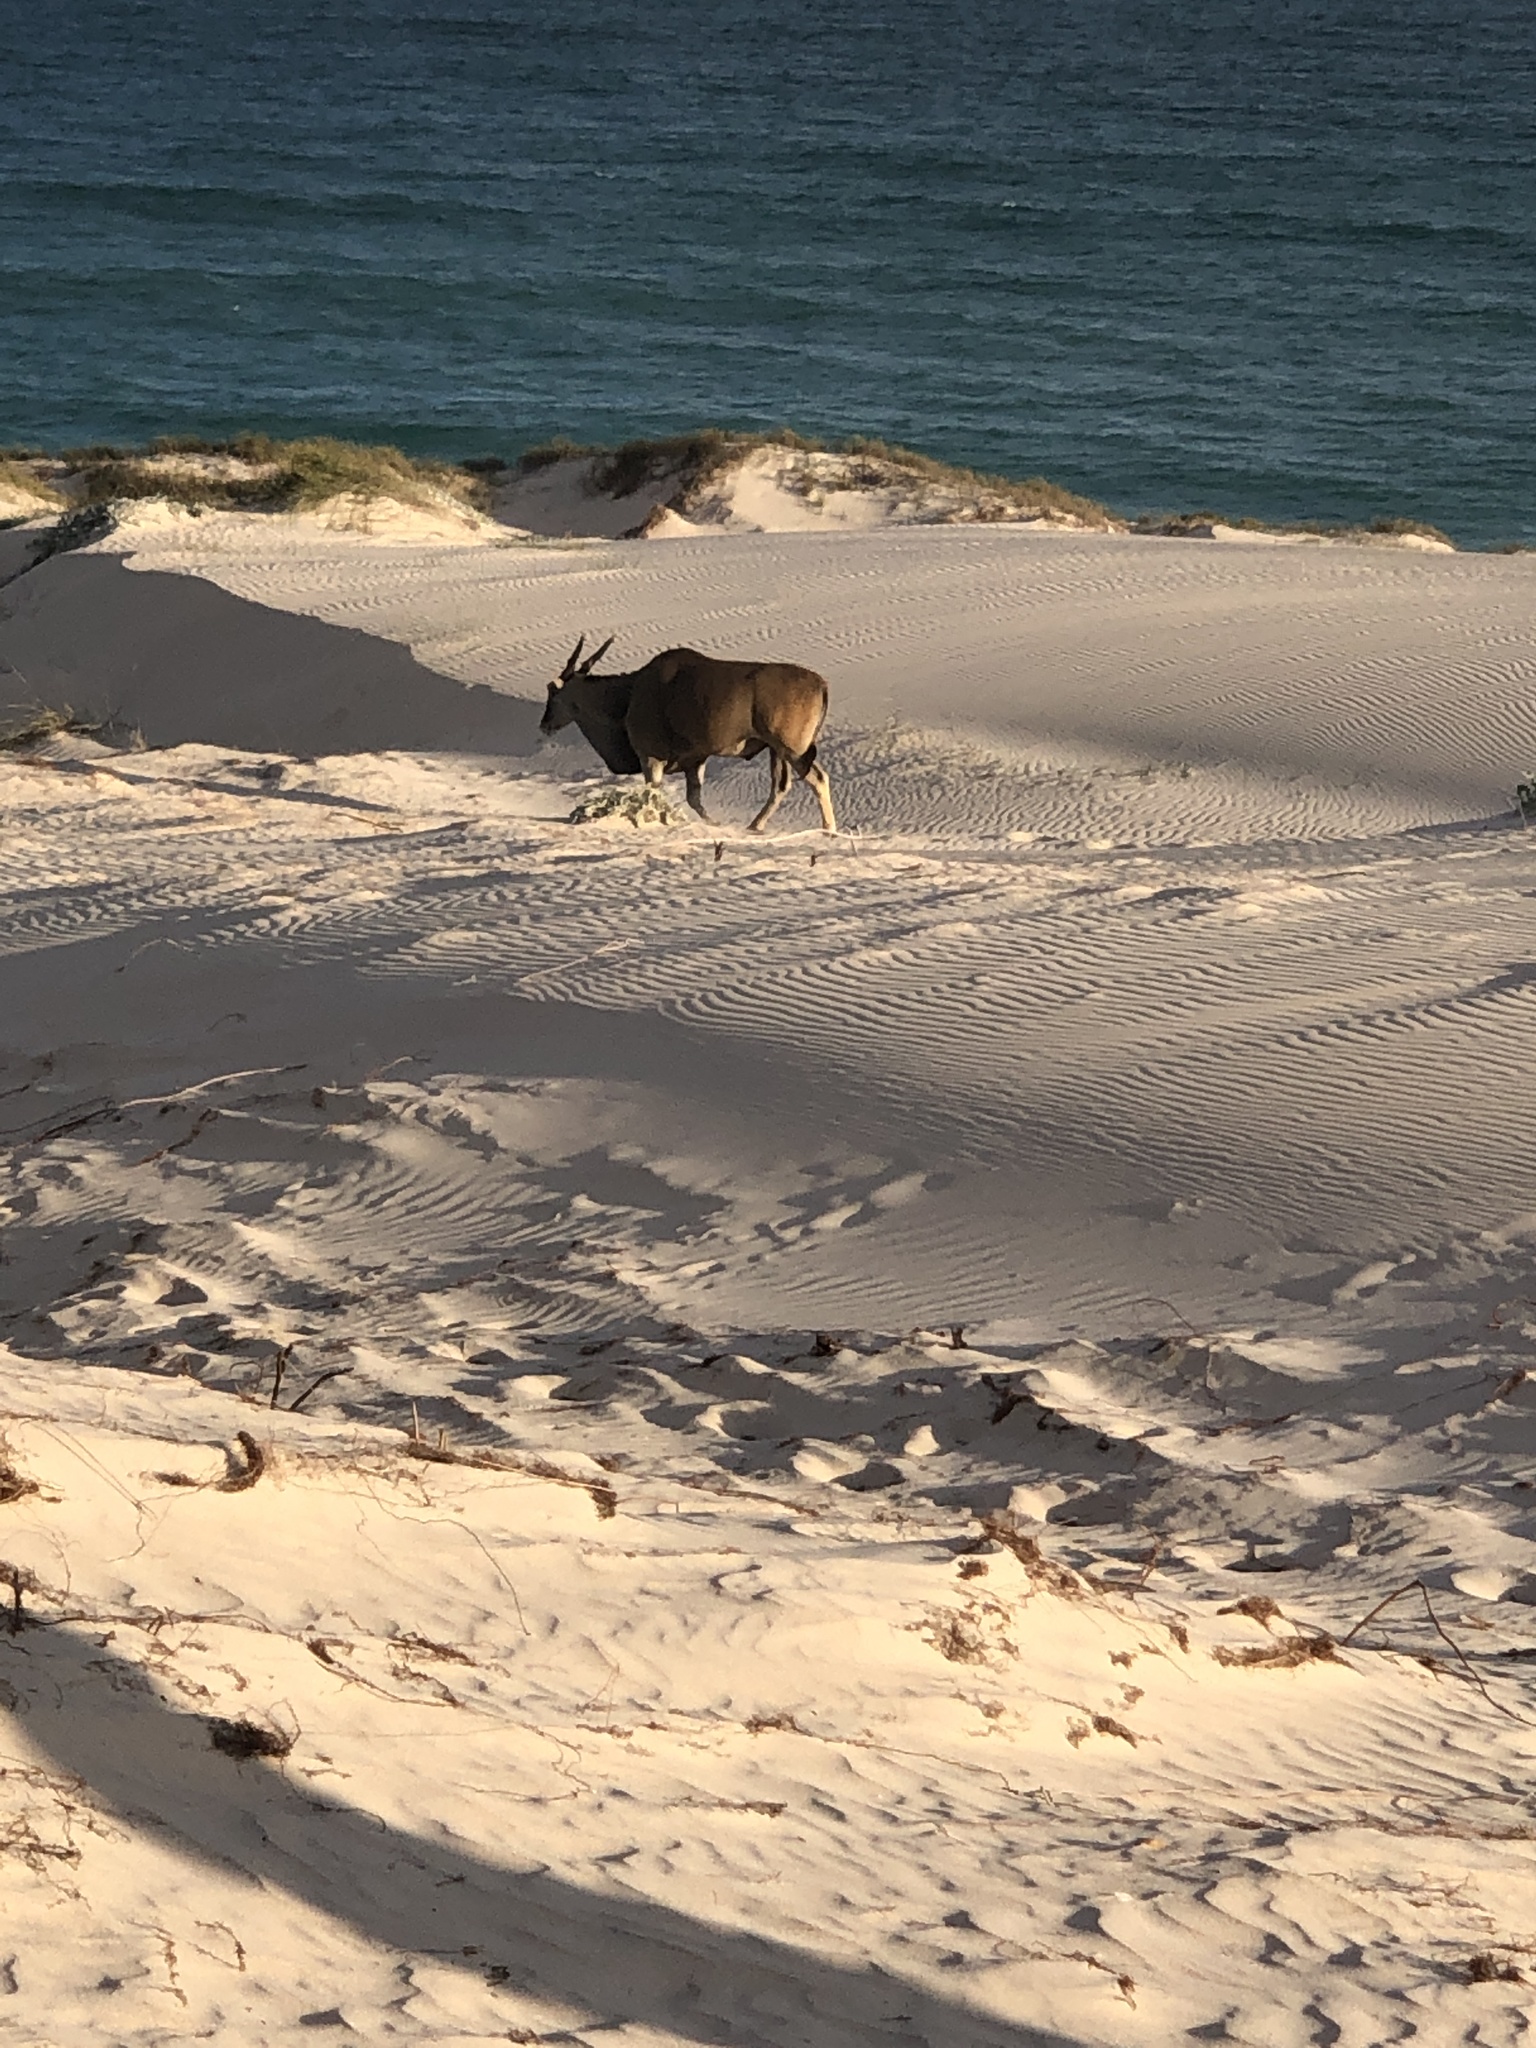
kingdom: Animalia
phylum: Chordata
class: Mammalia
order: Artiodactyla
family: Bovidae
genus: Taurotragus
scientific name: Taurotragus oryx
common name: Common eland
